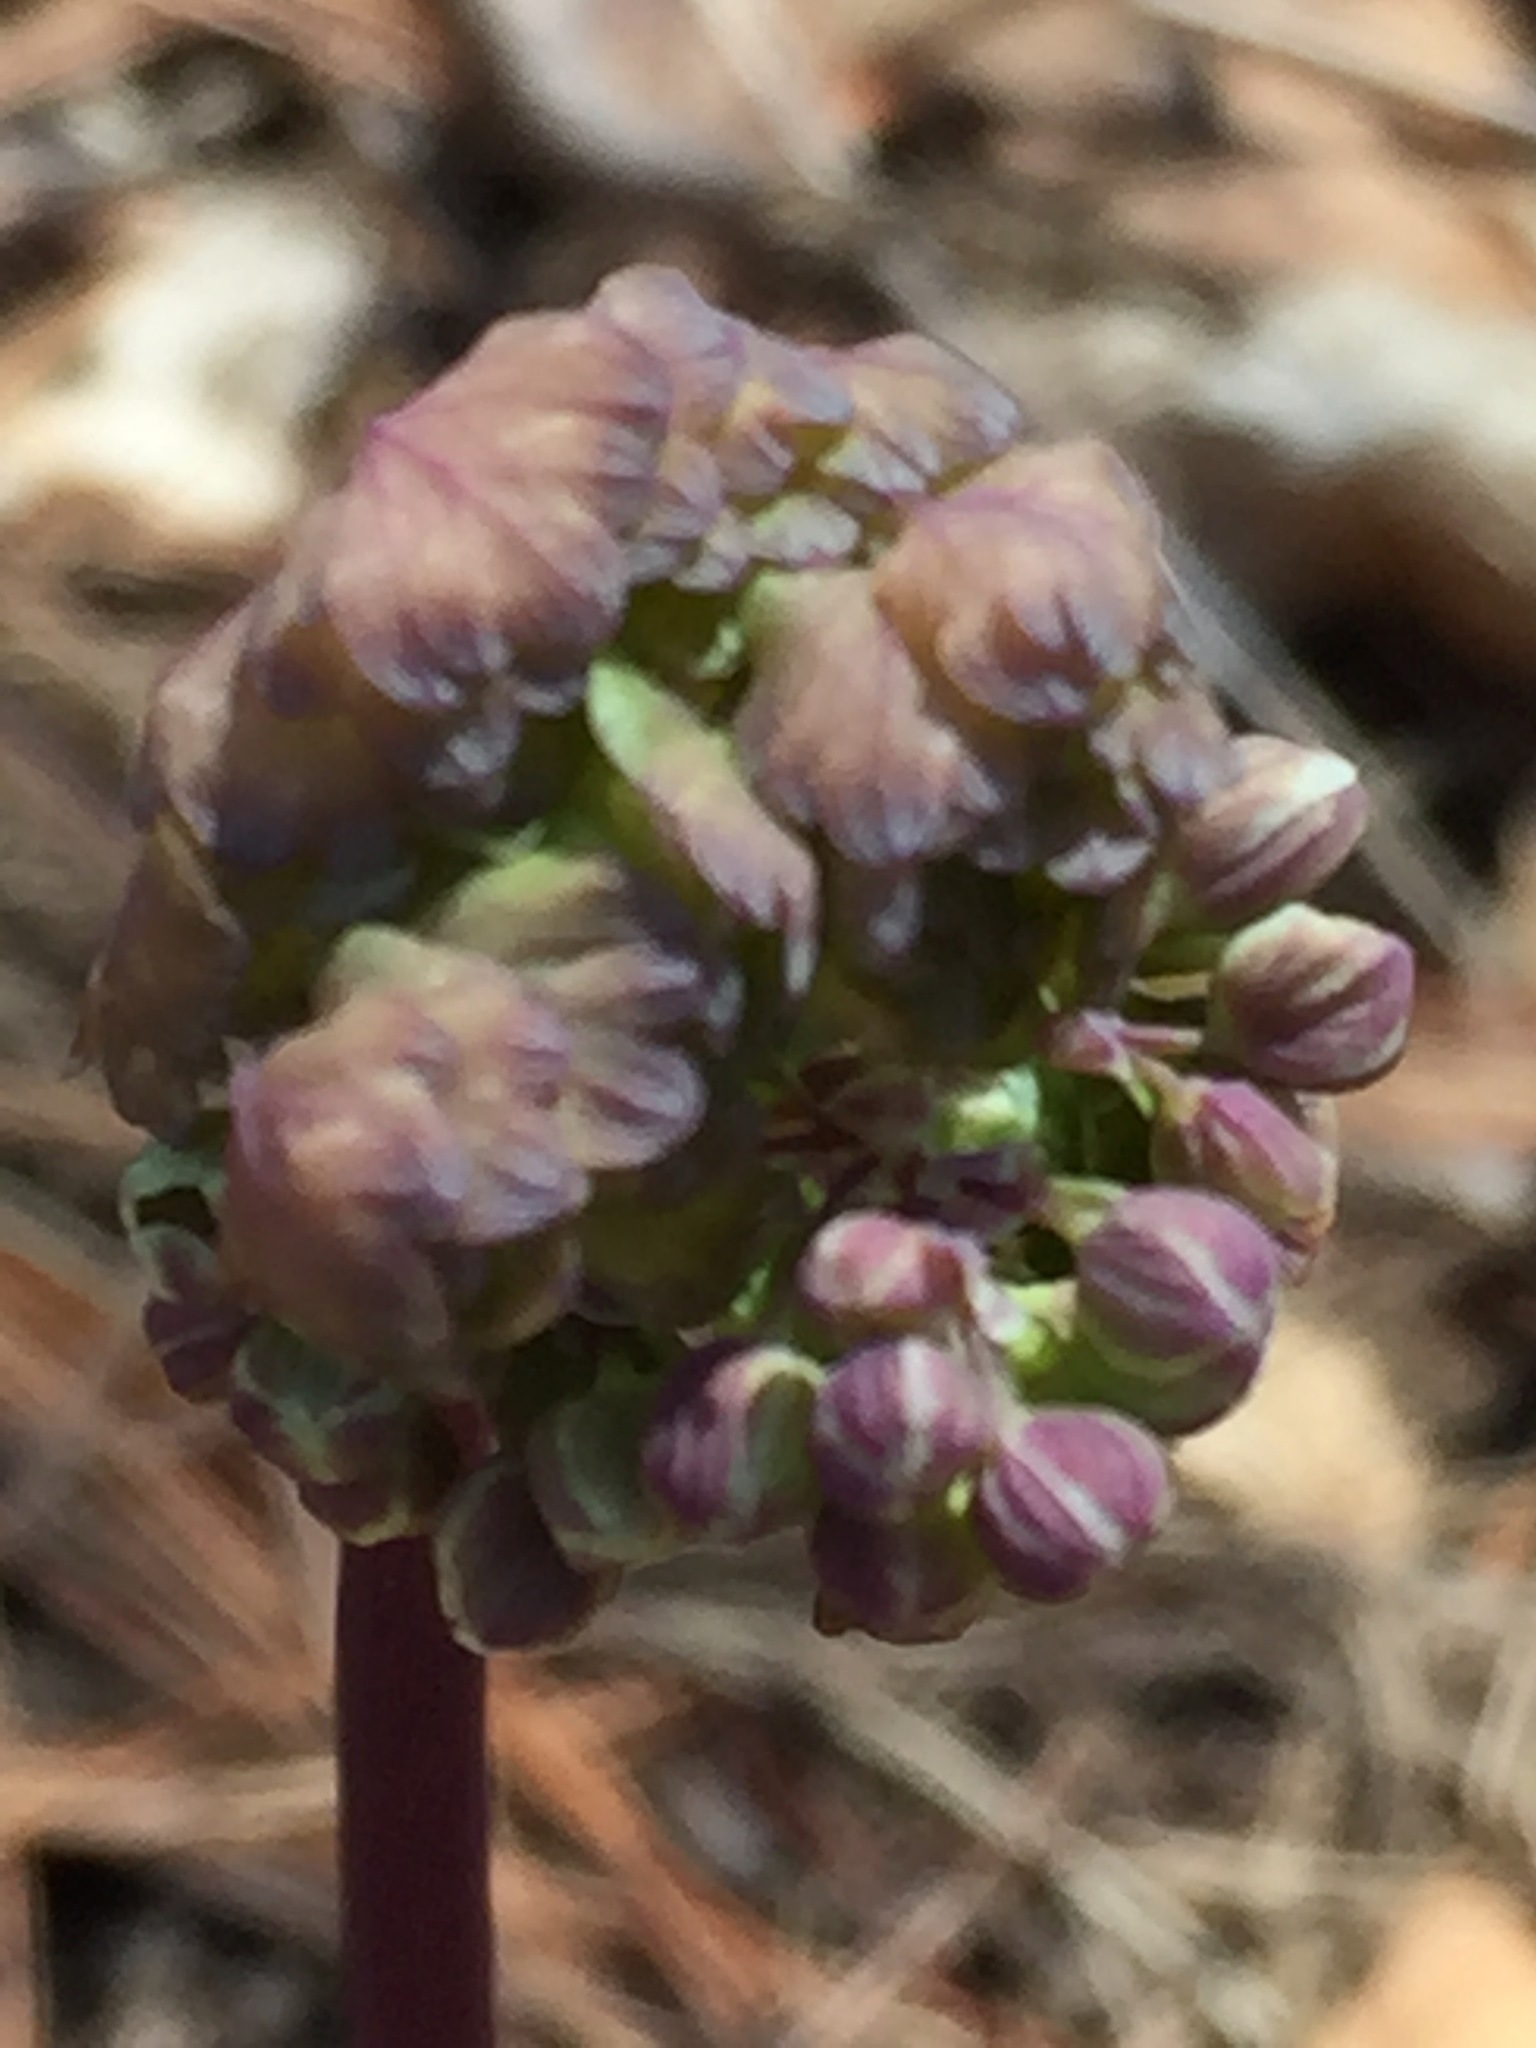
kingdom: Plantae
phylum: Tracheophyta
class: Magnoliopsida
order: Ranunculales
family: Ranunculaceae
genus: Thalictrum
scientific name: Thalictrum dioicum
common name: Early meadow-rue
